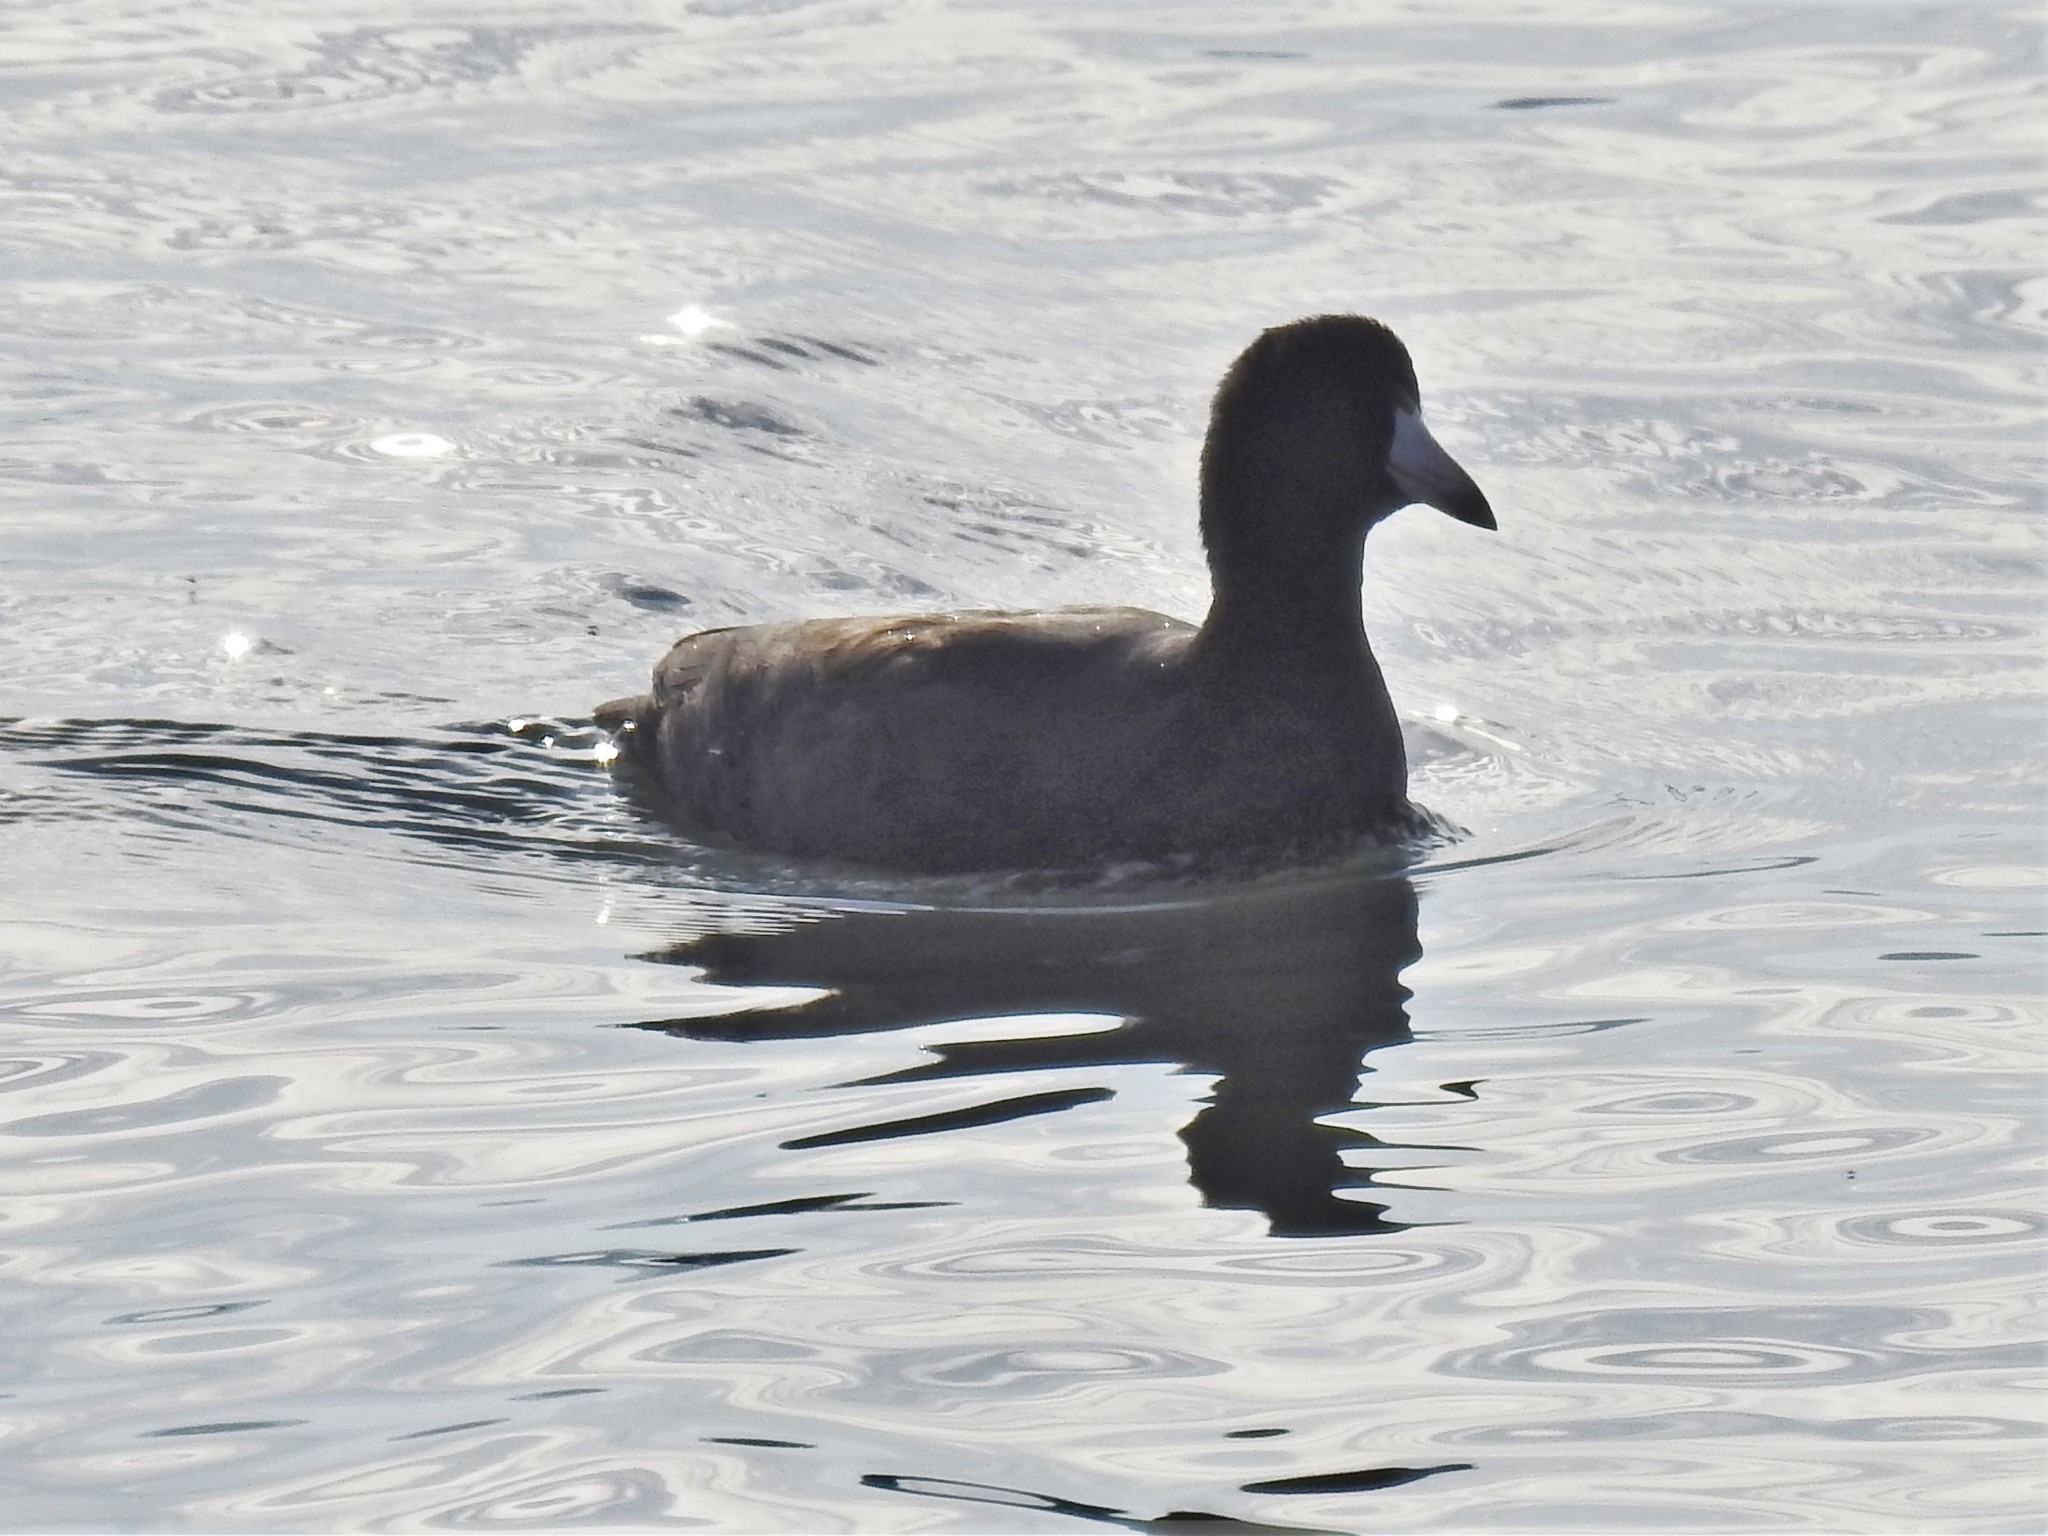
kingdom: Animalia
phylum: Chordata
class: Aves
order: Gruiformes
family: Rallidae
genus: Fulica
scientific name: Fulica americana
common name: American coot
